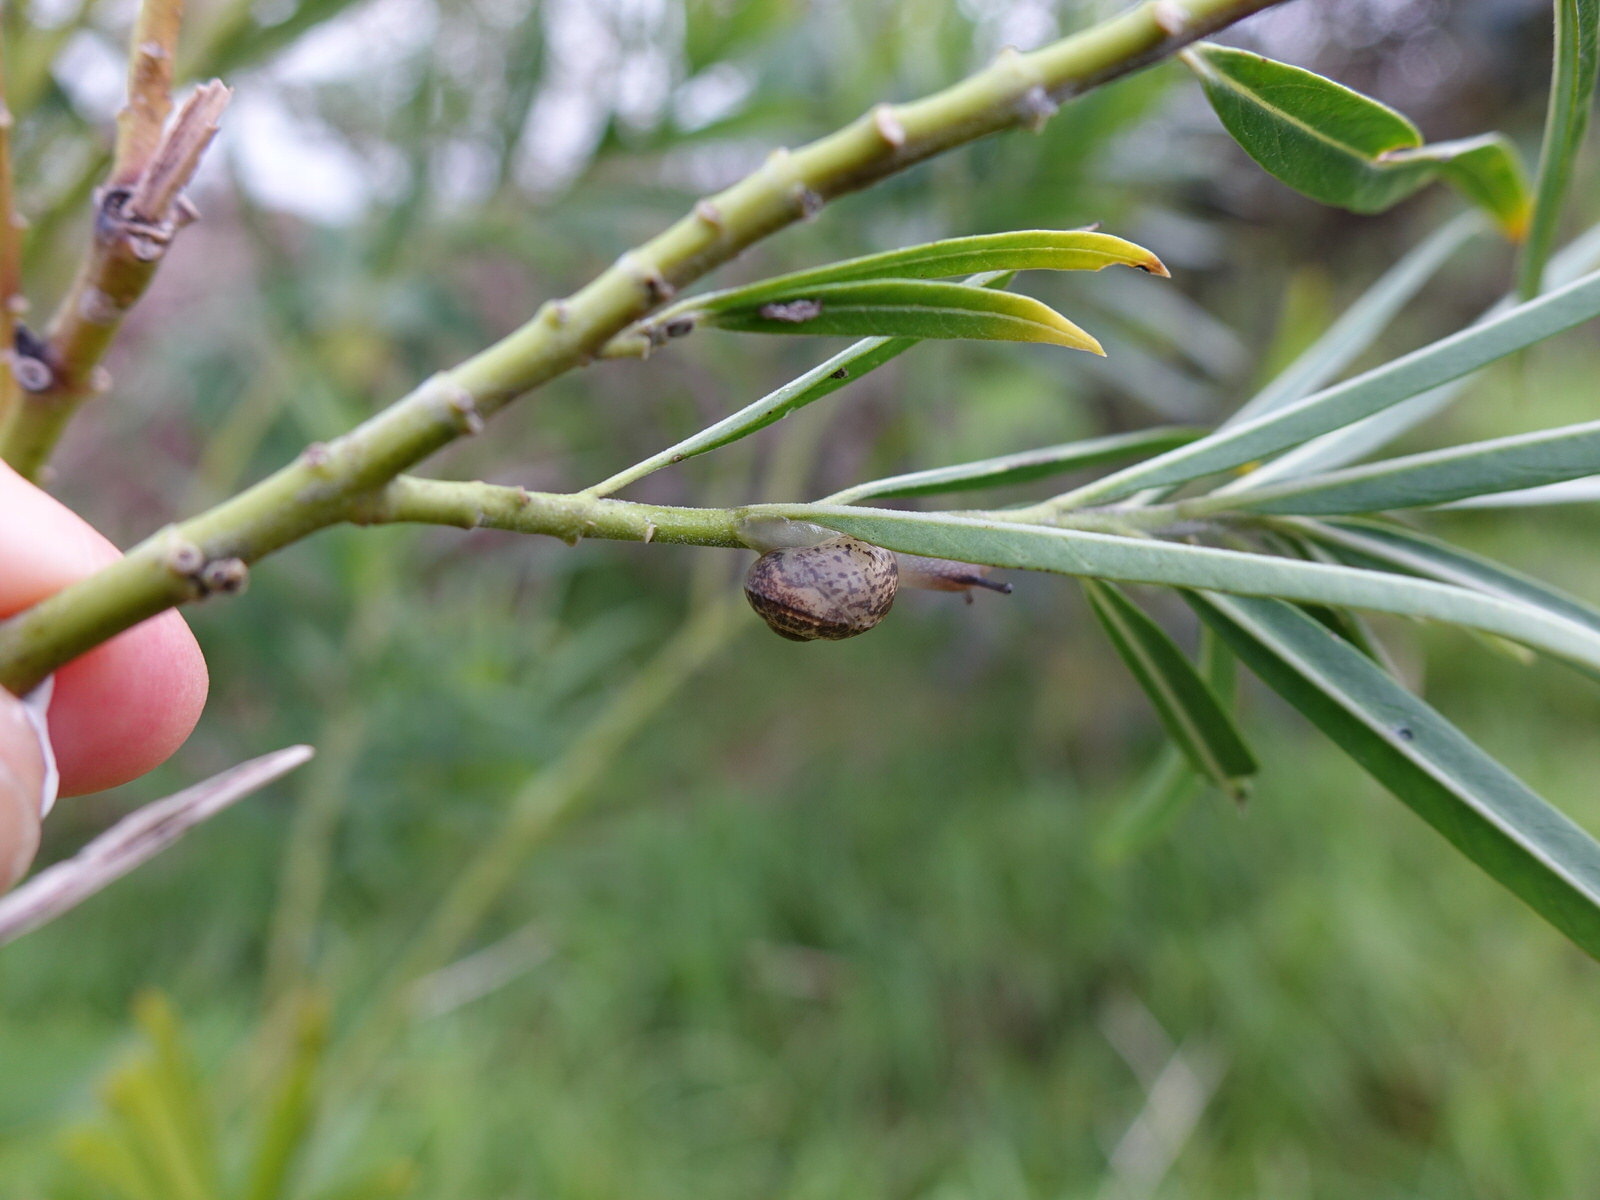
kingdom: Animalia
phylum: Mollusca
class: Gastropoda
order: Stylommatophora
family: Helicidae
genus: Cornu
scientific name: Cornu aspersum
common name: Brown garden snail
